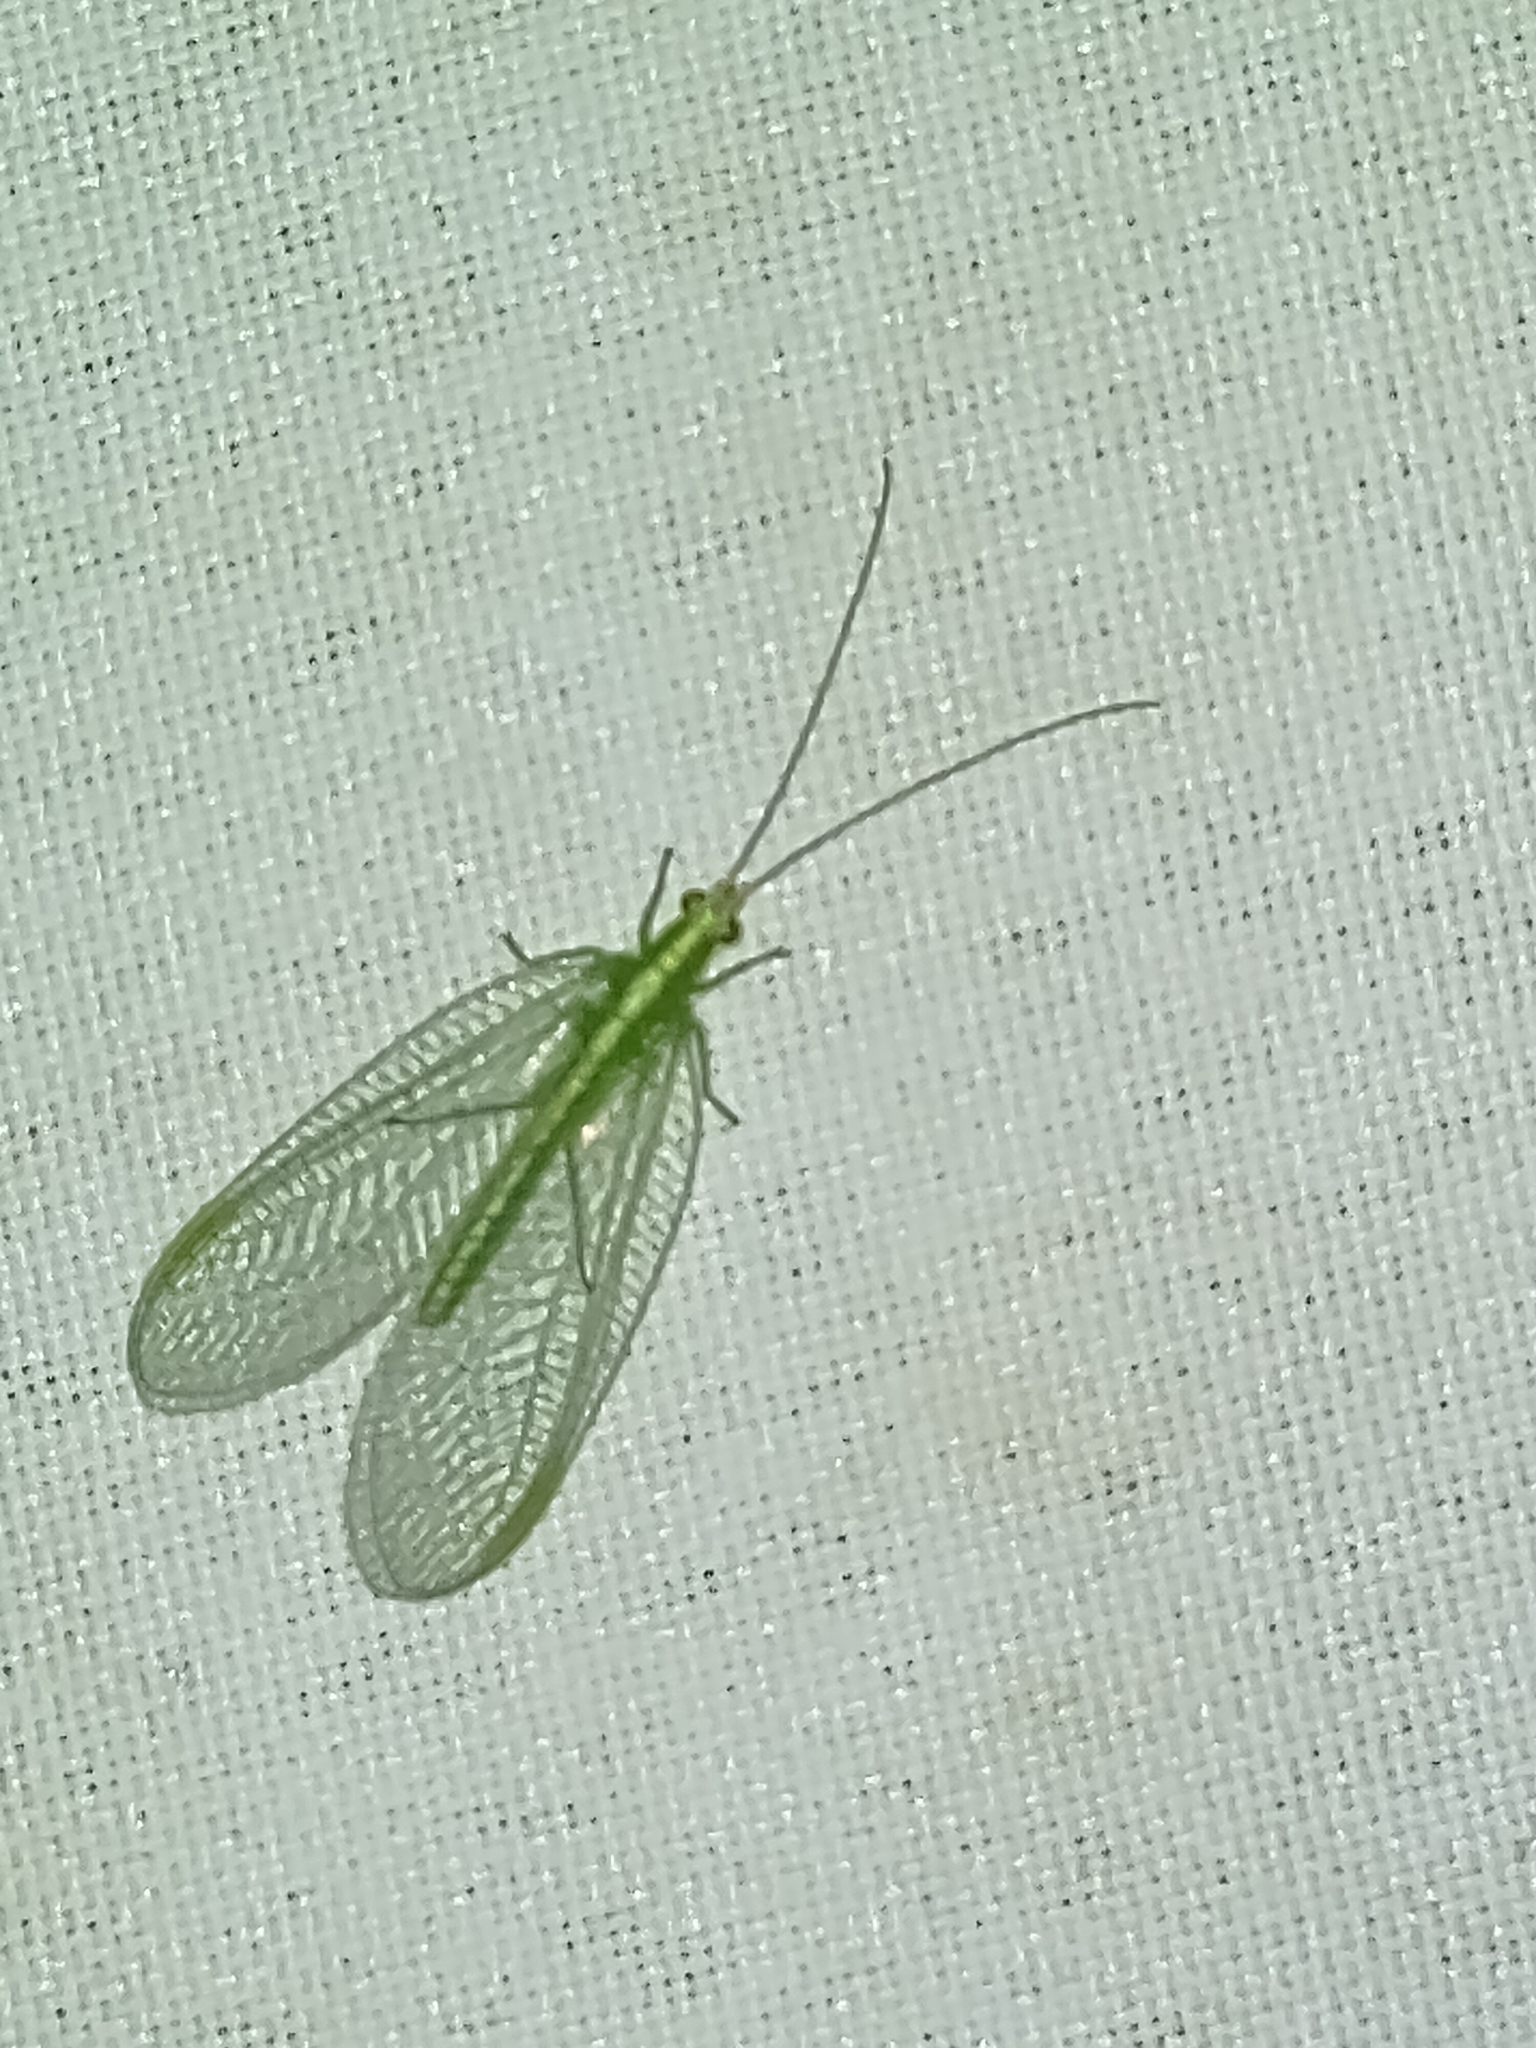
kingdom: Animalia
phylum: Arthropoda
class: Insecta
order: Neuroptera
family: Chrysopidae
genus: Chrysoperla
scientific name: Chrysoperla
